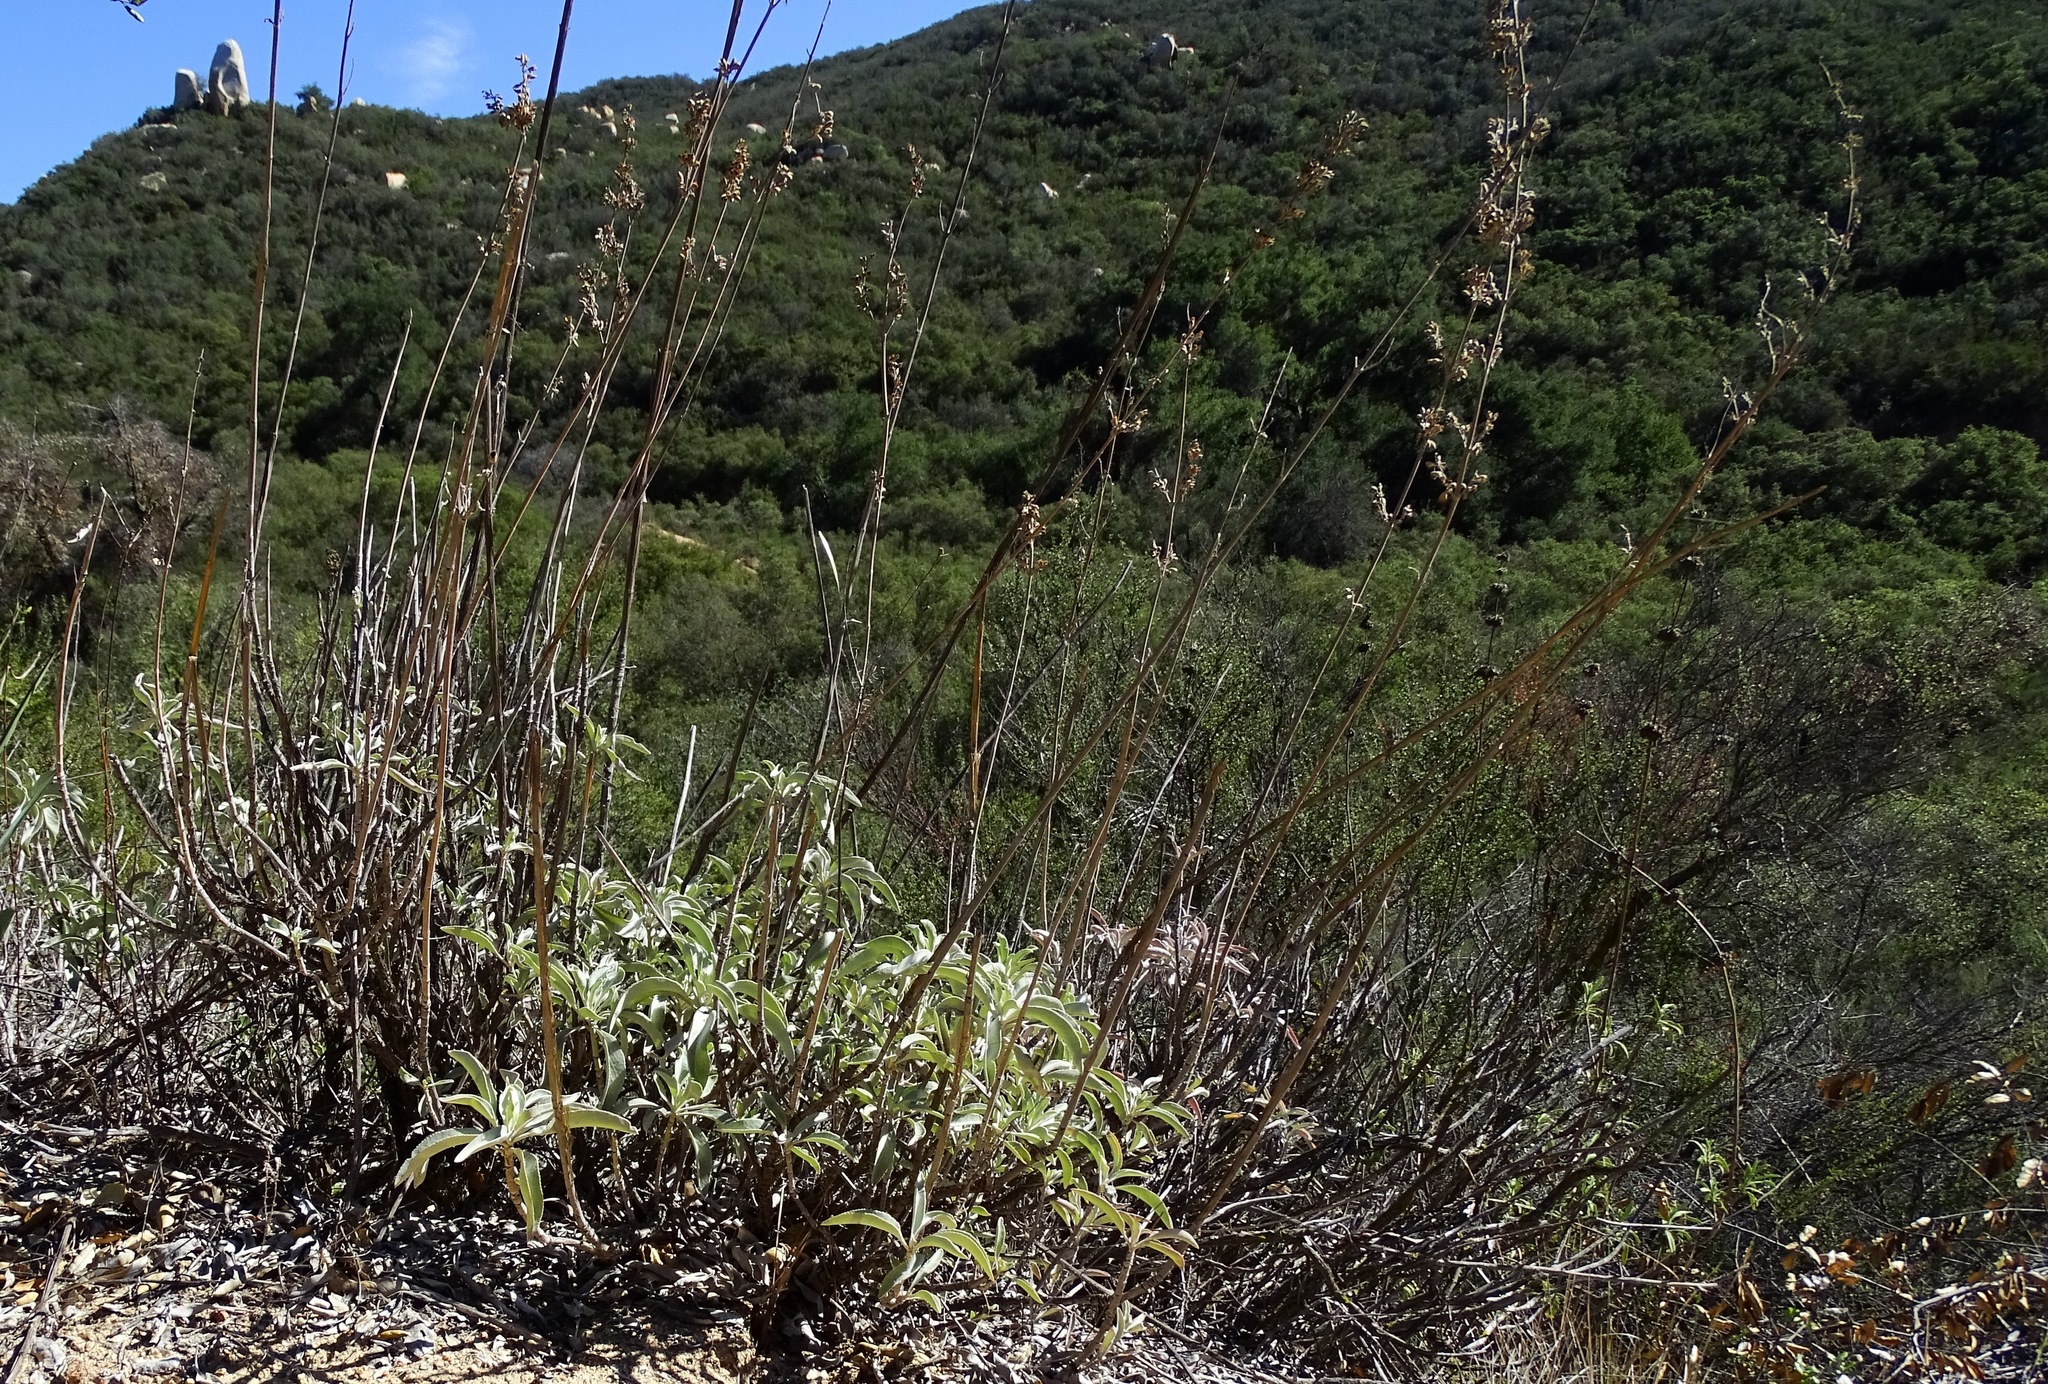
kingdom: Plantae
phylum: Tracheophyta
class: Magnoliopsida
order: Lamiales
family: Lamiaceae
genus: Salvia
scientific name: Salvia apiana
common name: White sage
